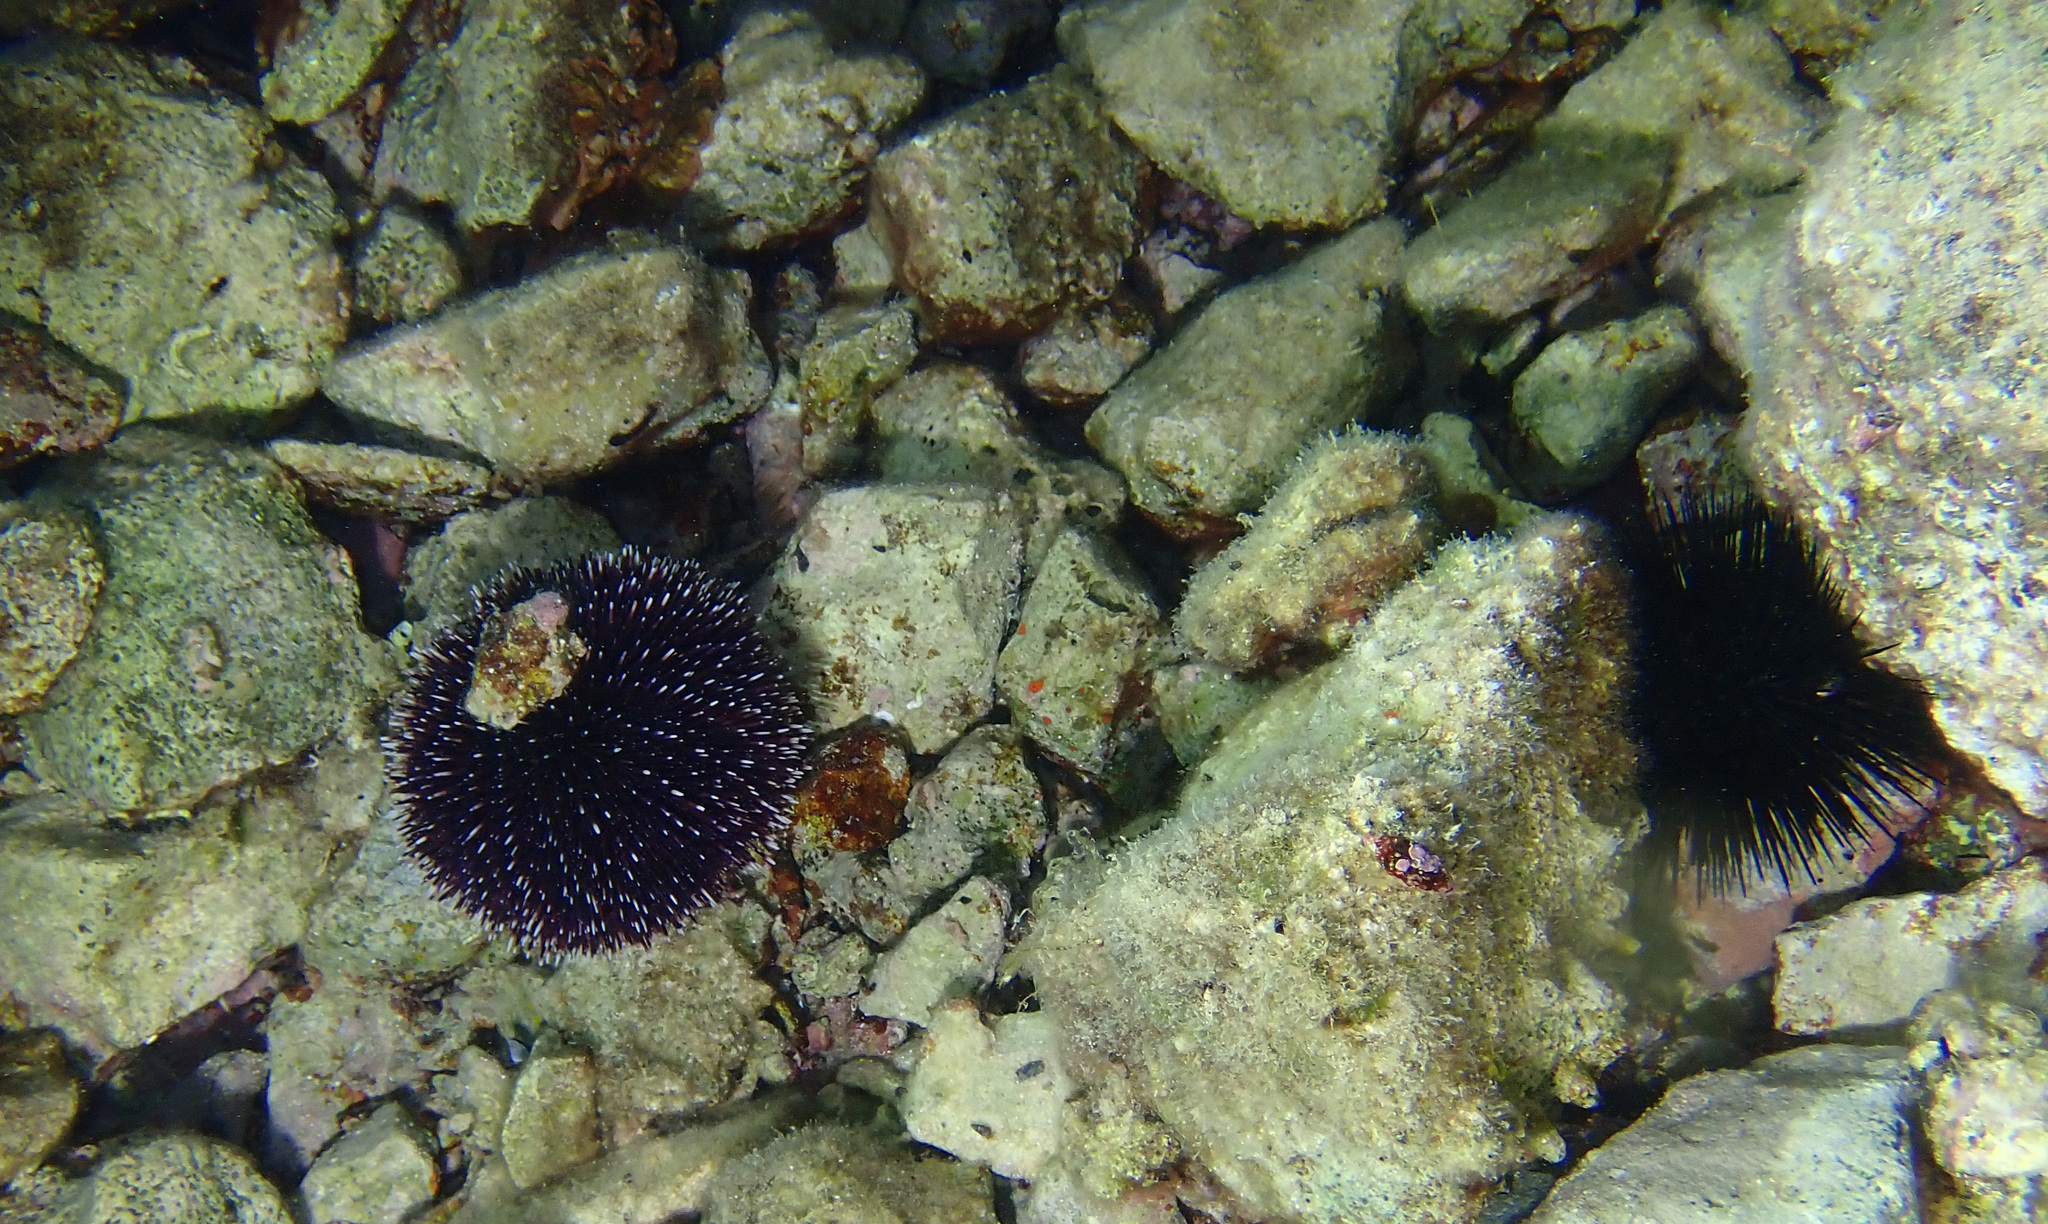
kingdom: Animalia
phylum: Echinodermata
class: Echinoidea
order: Camarodonta
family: Toxopneustidae
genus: Sphaerechinus
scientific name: Sphaerechinus granularis
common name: Violet sea urchin
